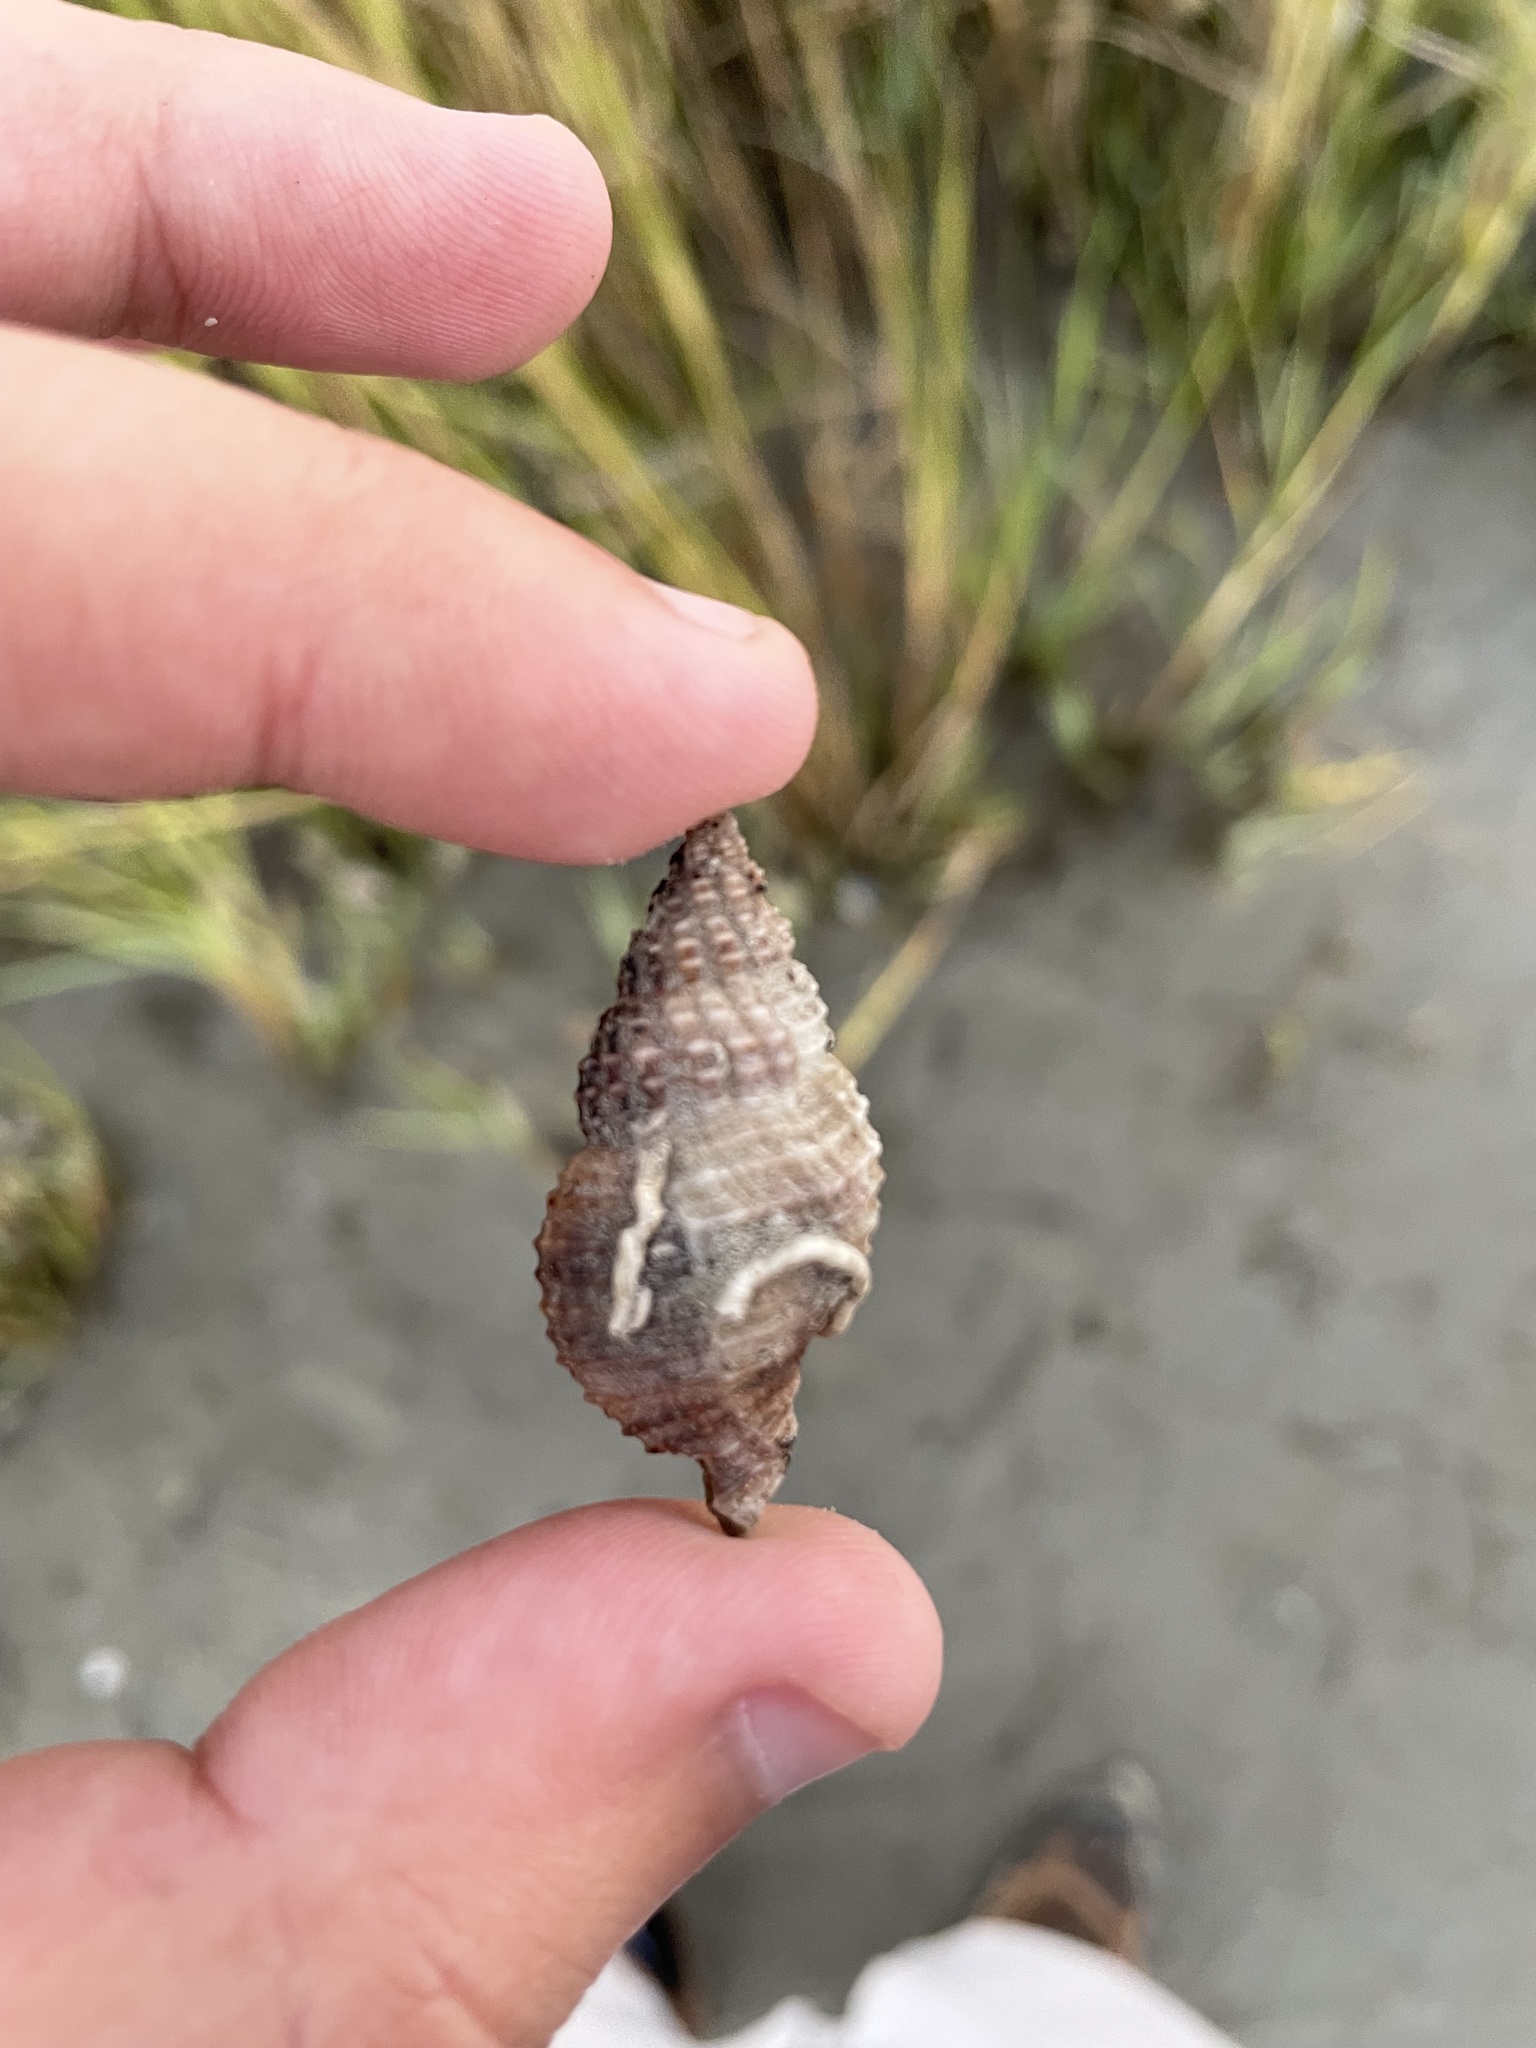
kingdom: Animalia
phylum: Mollusca
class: Gastropoda
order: Neogastropoda
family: Pisaniidae
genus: Solenosteira
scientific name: Solenosteira cancellaria
